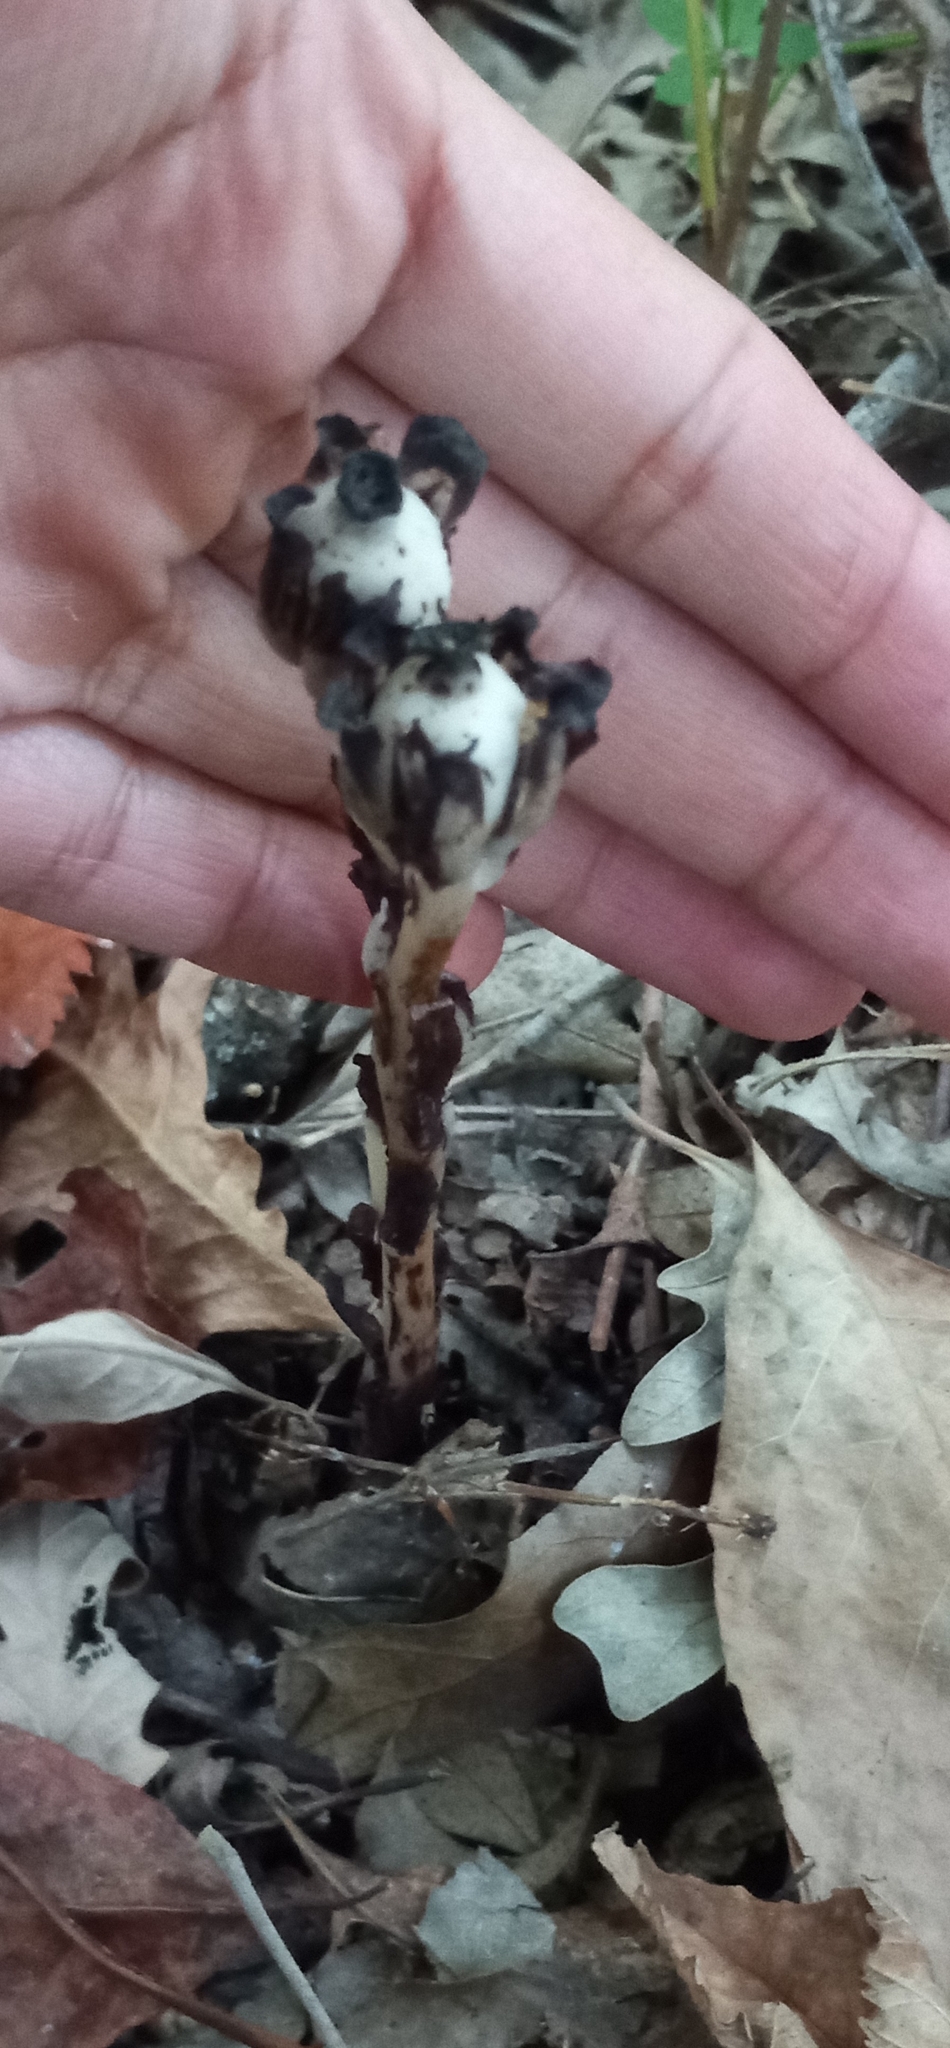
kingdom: Plantae
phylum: Tracheophyta
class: Magnoliopsida
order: Ericales
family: Ericaceae
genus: Monotropa
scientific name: Monotropa uniflora
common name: Convulsion root
